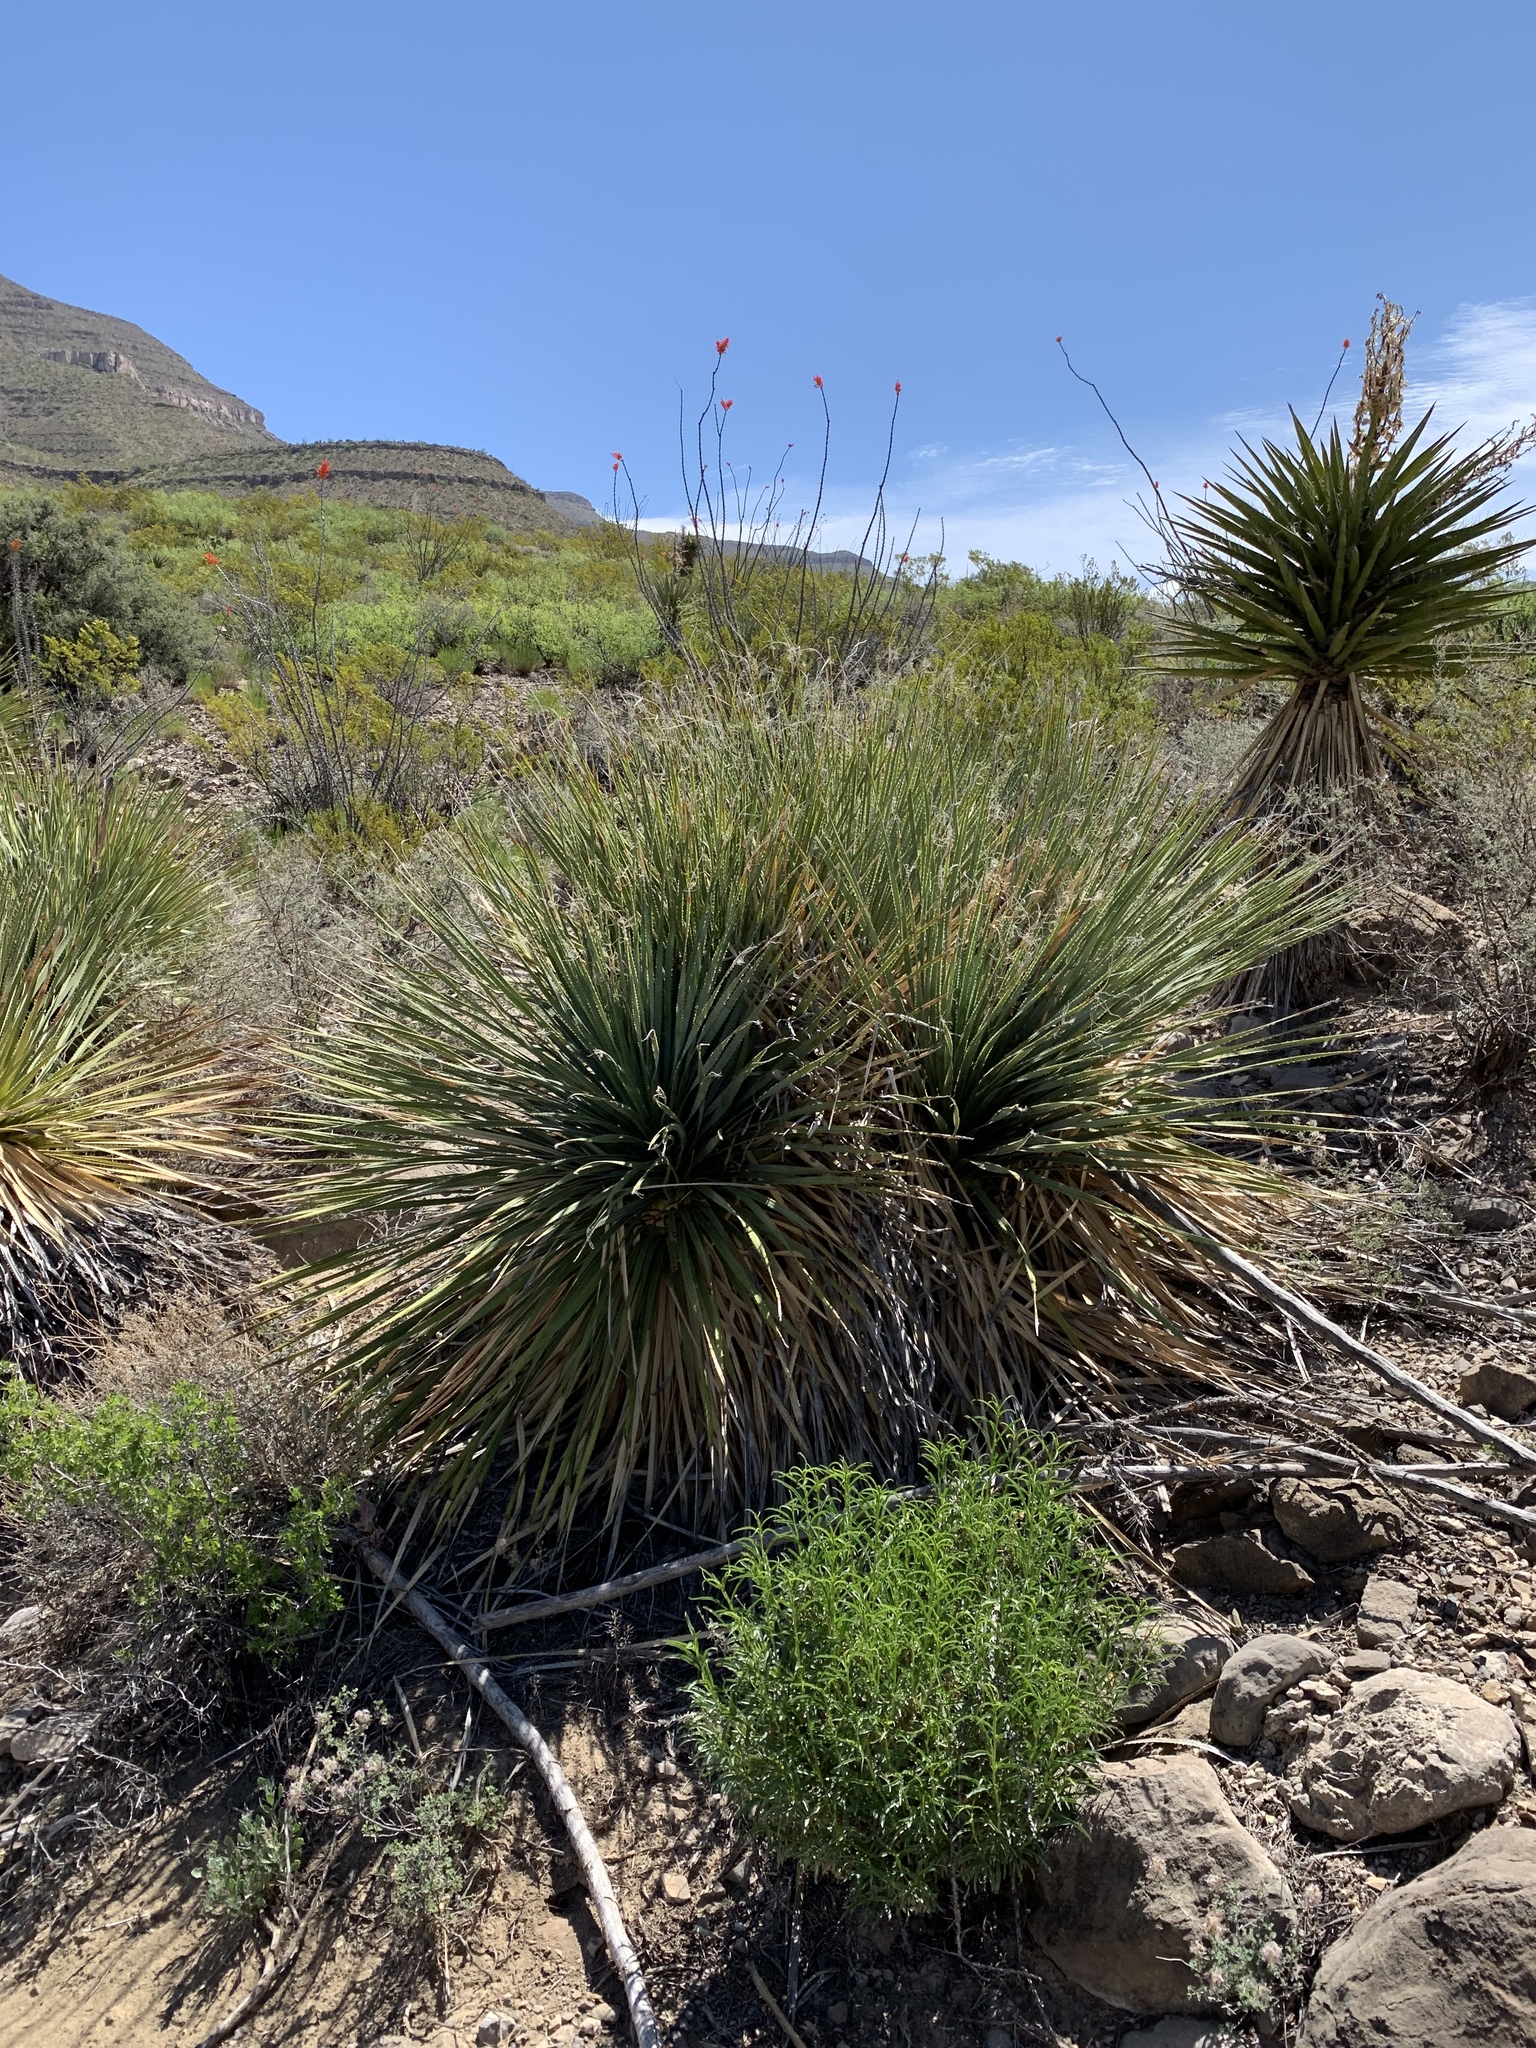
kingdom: Plantae
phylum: Tracheophyta
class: Liliopsida
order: Asparagales
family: Asparagaceae
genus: Dasylirion
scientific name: Dasylirion wheeleri
